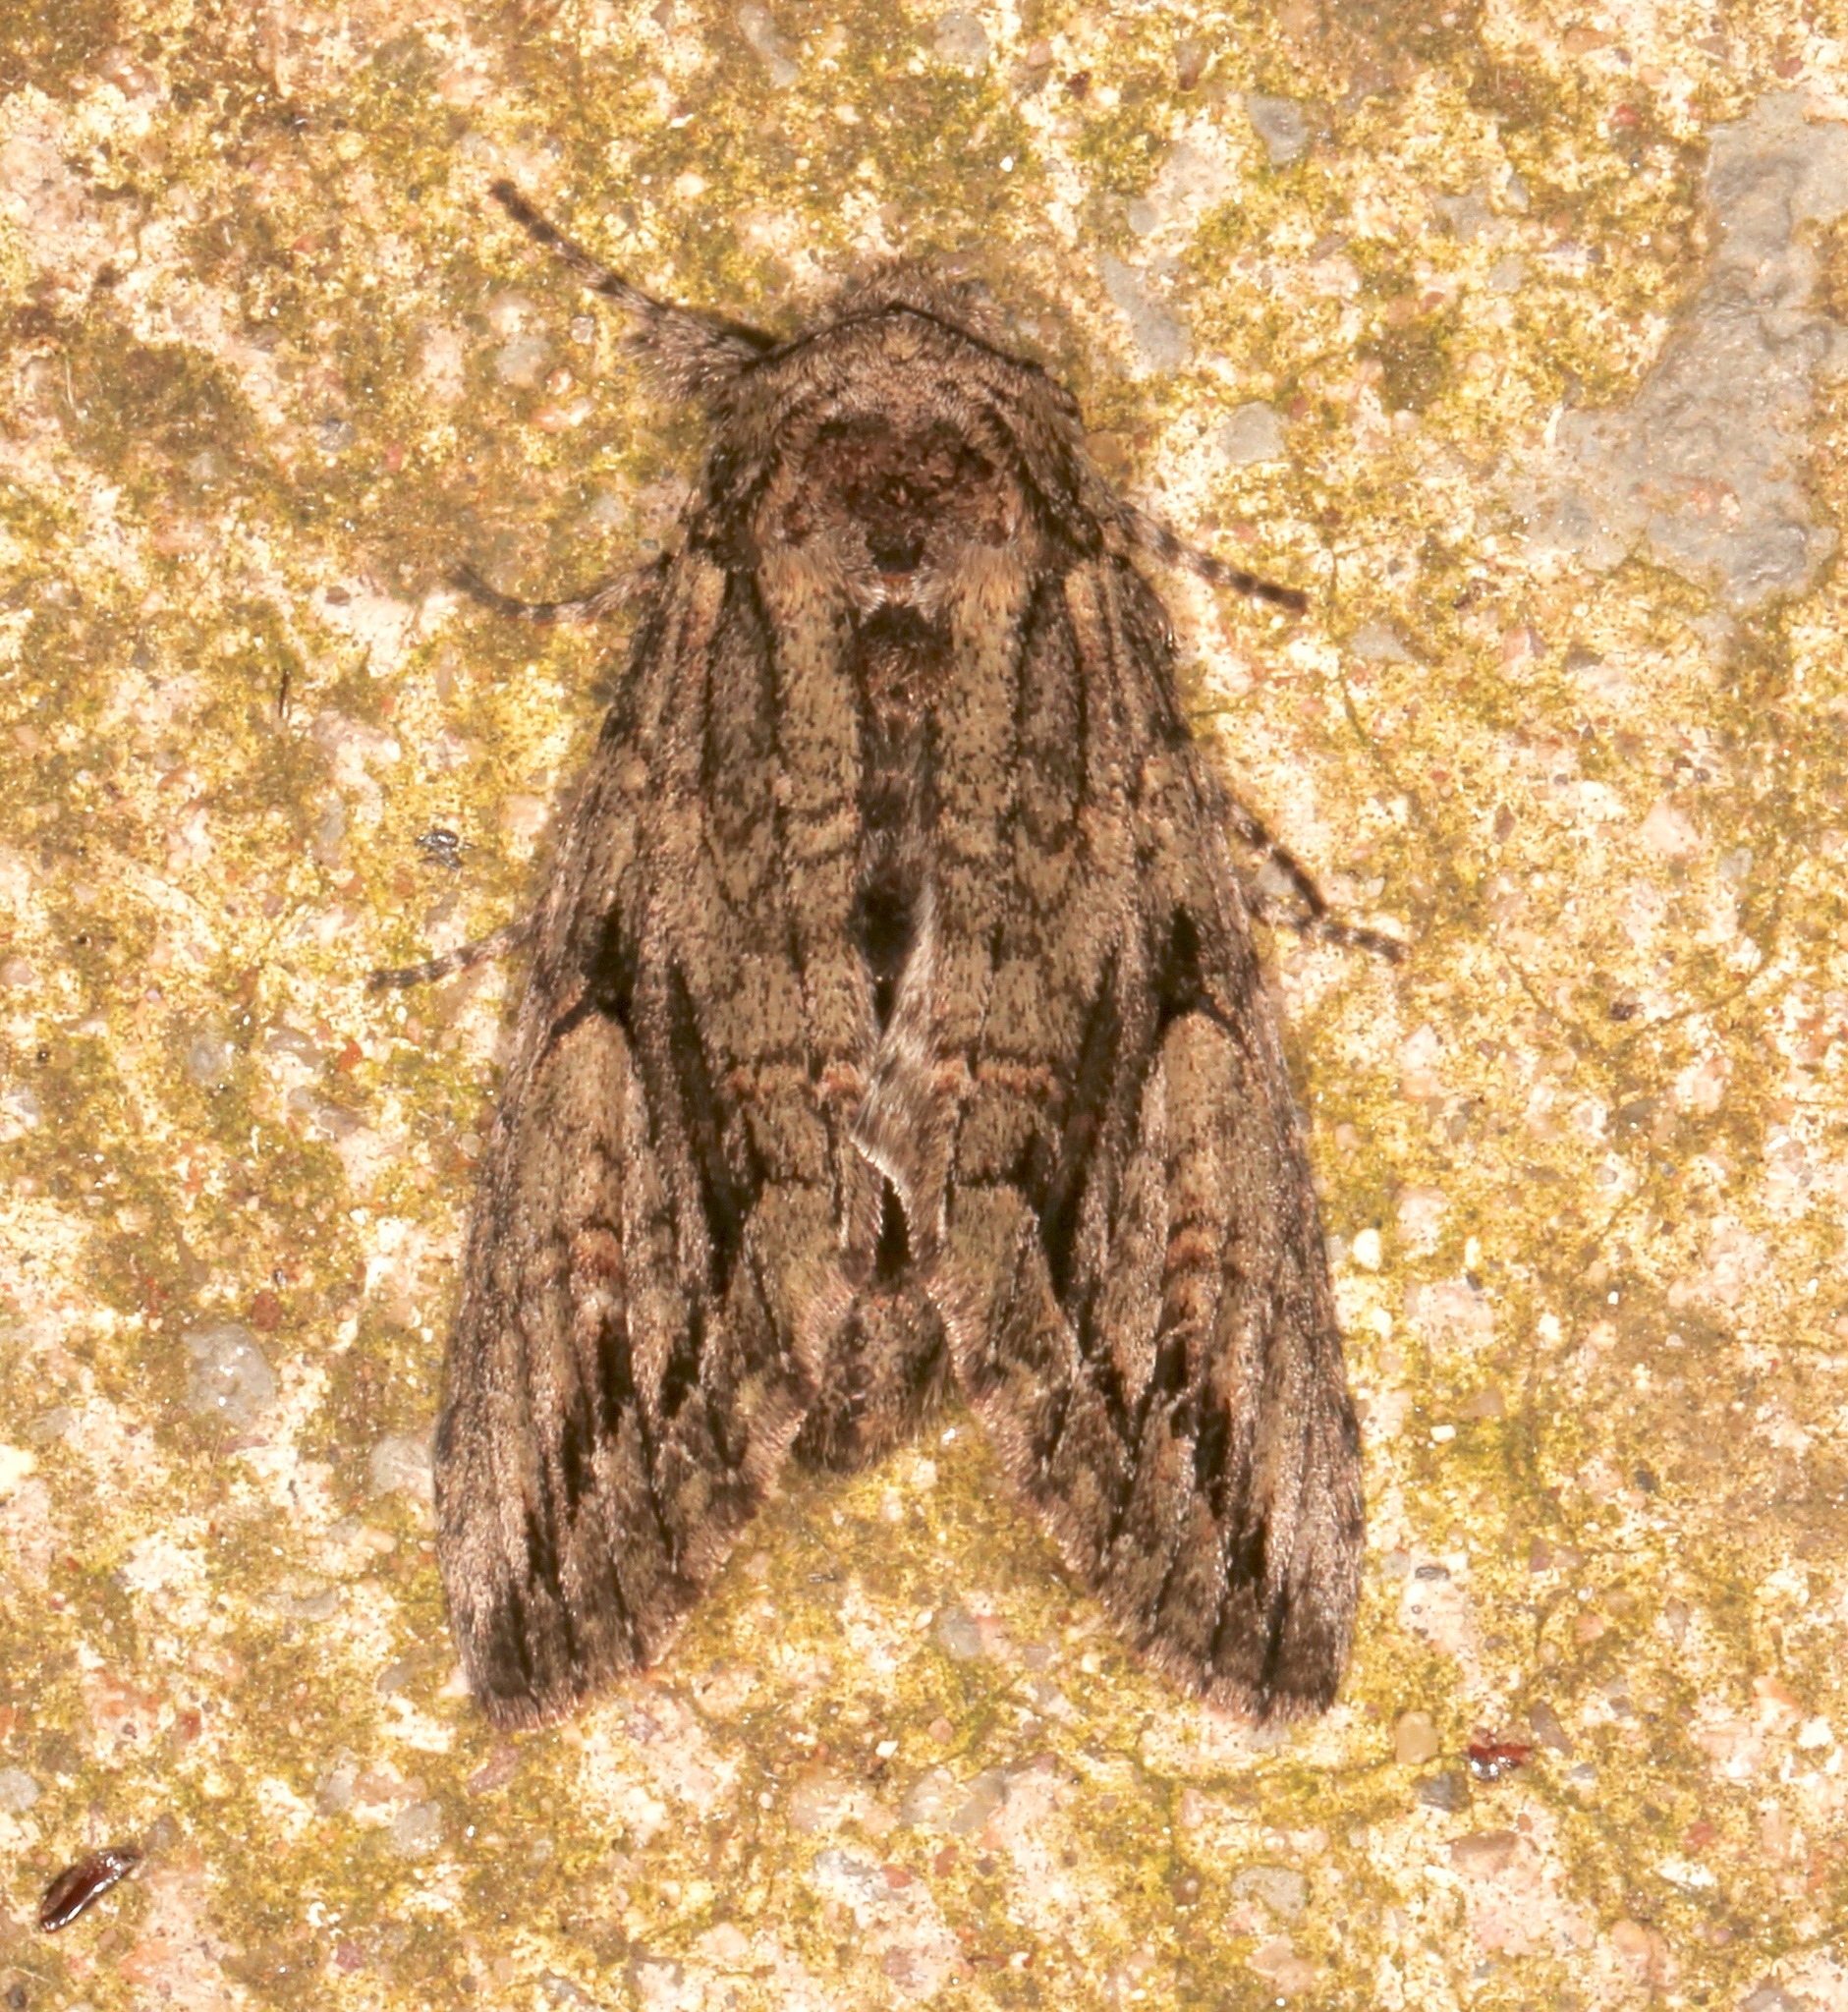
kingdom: Animalia
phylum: Arthropoda
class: Insecta
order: Lepidoptera
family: Notodontidae
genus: Heterocampa
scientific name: Heterocampa averna
